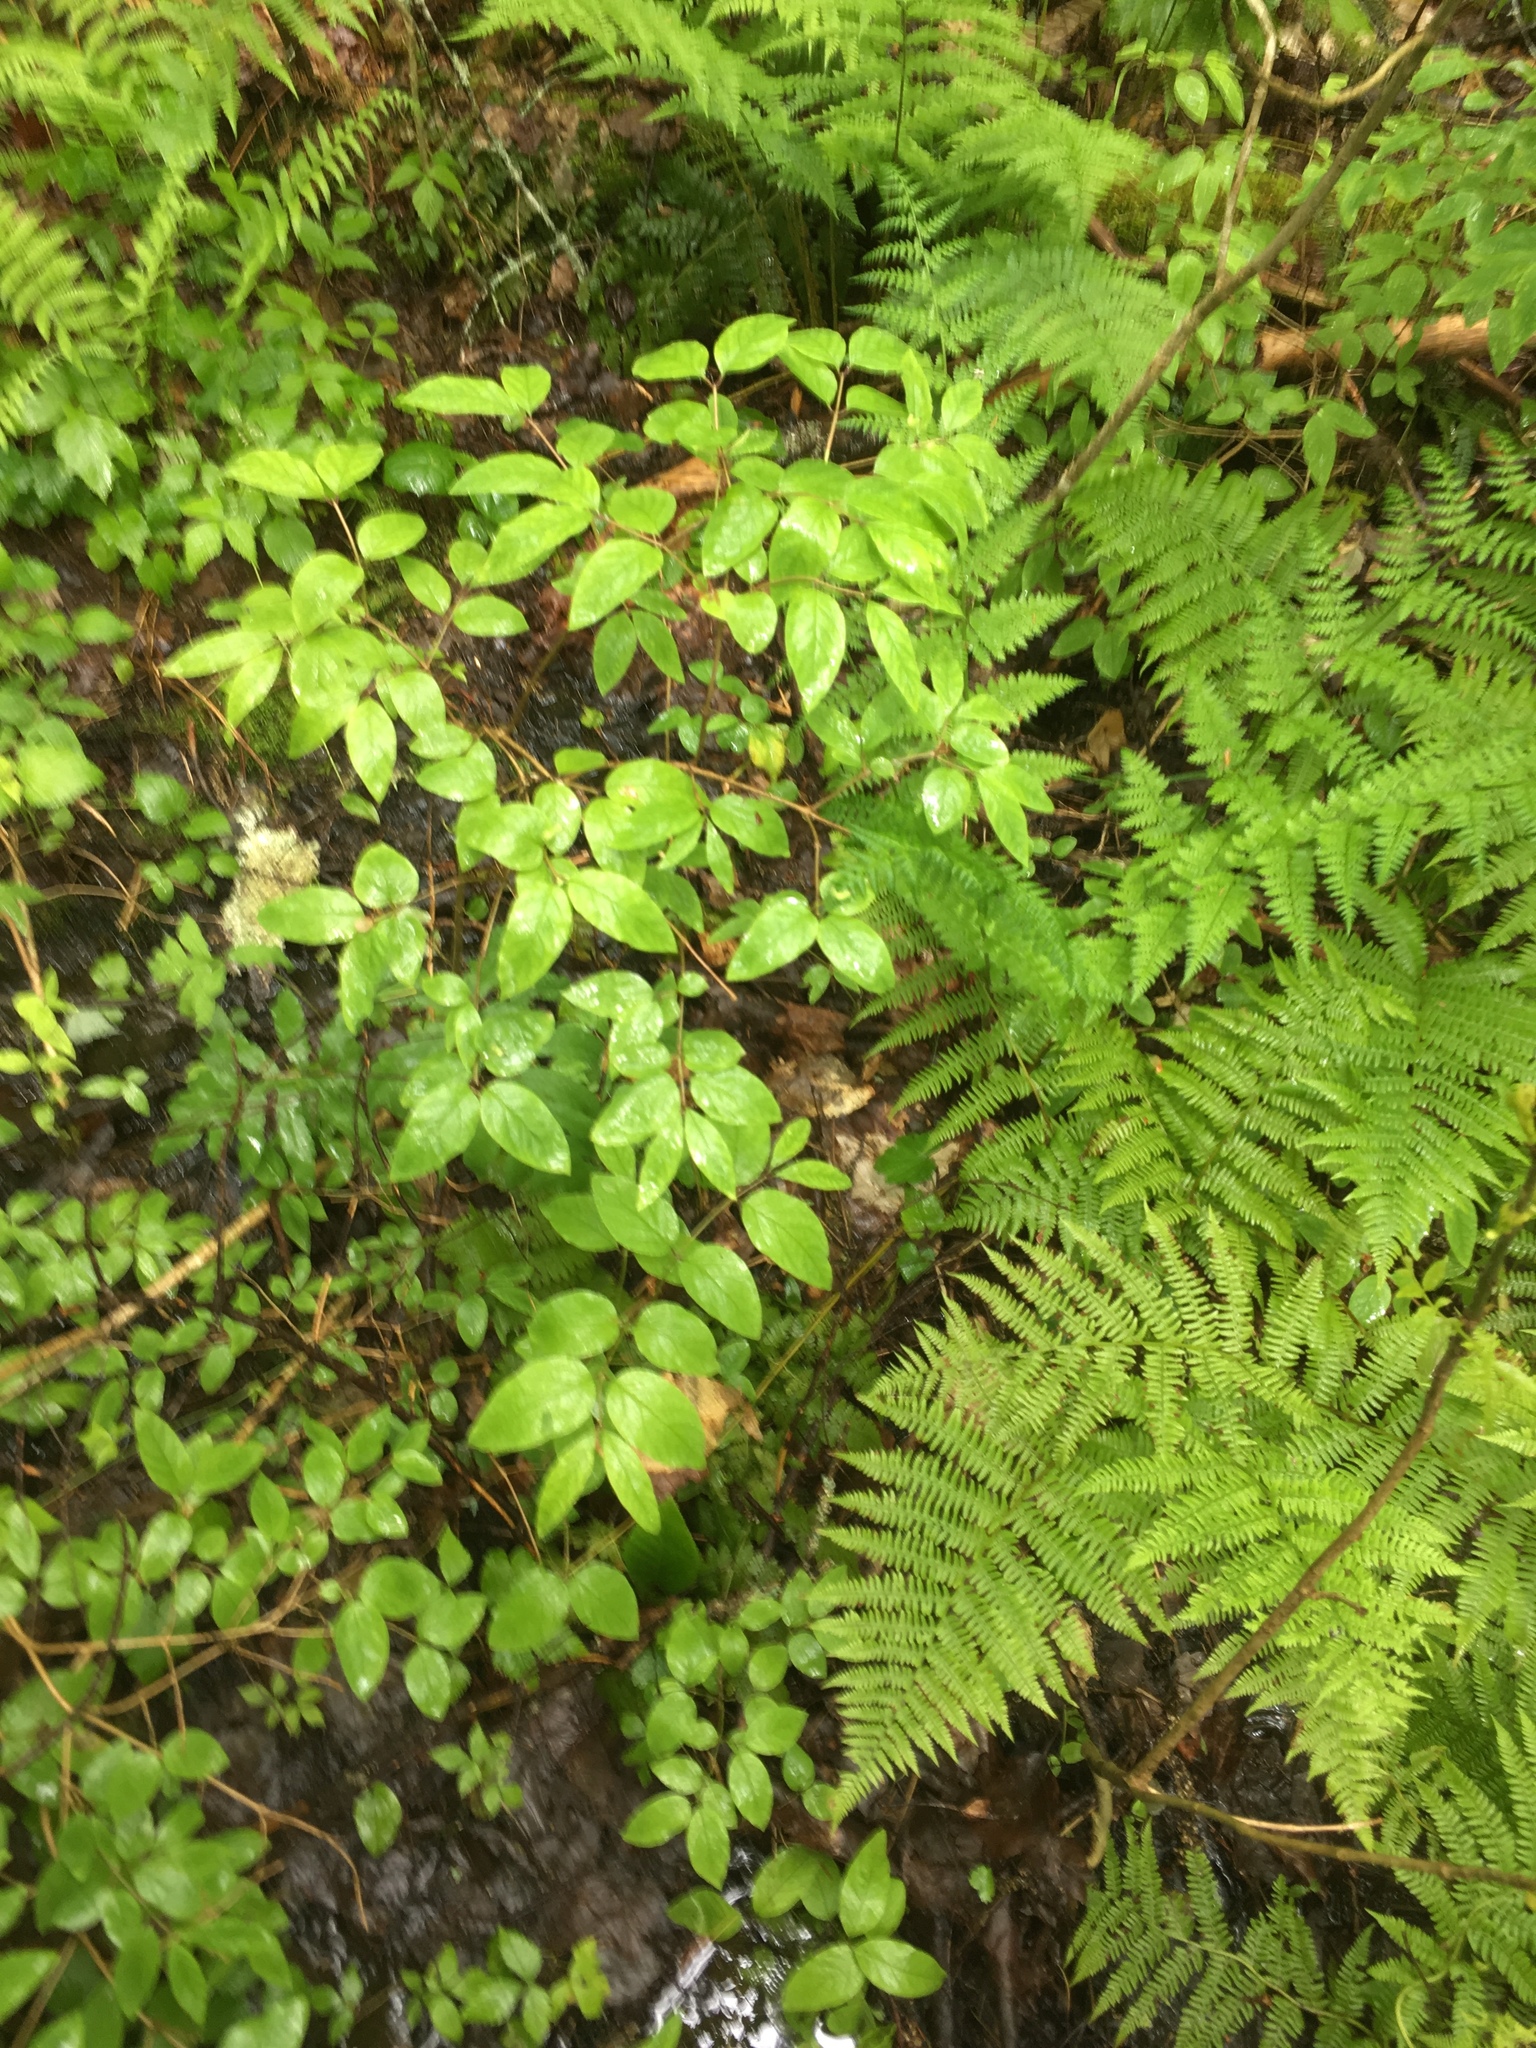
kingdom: Plantae
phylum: Tracheophyta
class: Magnoliopsida
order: Dipsacales
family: Caprifoliaceae
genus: Lonicera
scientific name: Lonicera canadensis
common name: American fly-honeysuckle
